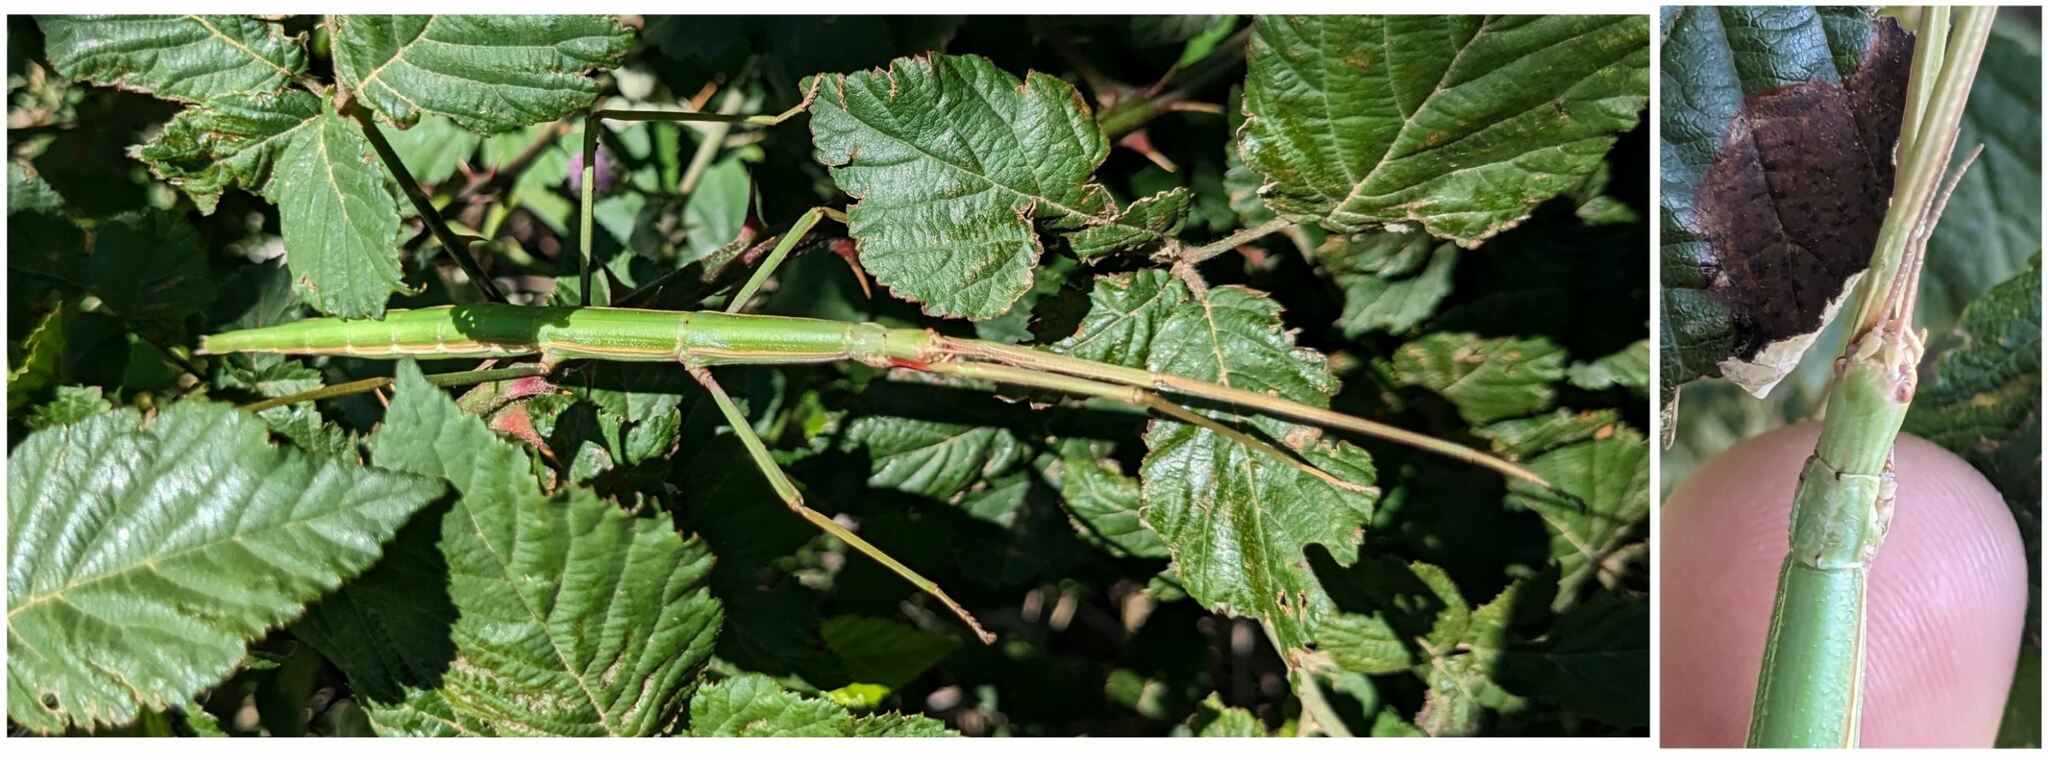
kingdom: Animalia
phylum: Arthropoda
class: Insecta
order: Phasmida
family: Bacillidae
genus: Bacillus
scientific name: Bacillus rossius
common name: Corsican stick-insect
